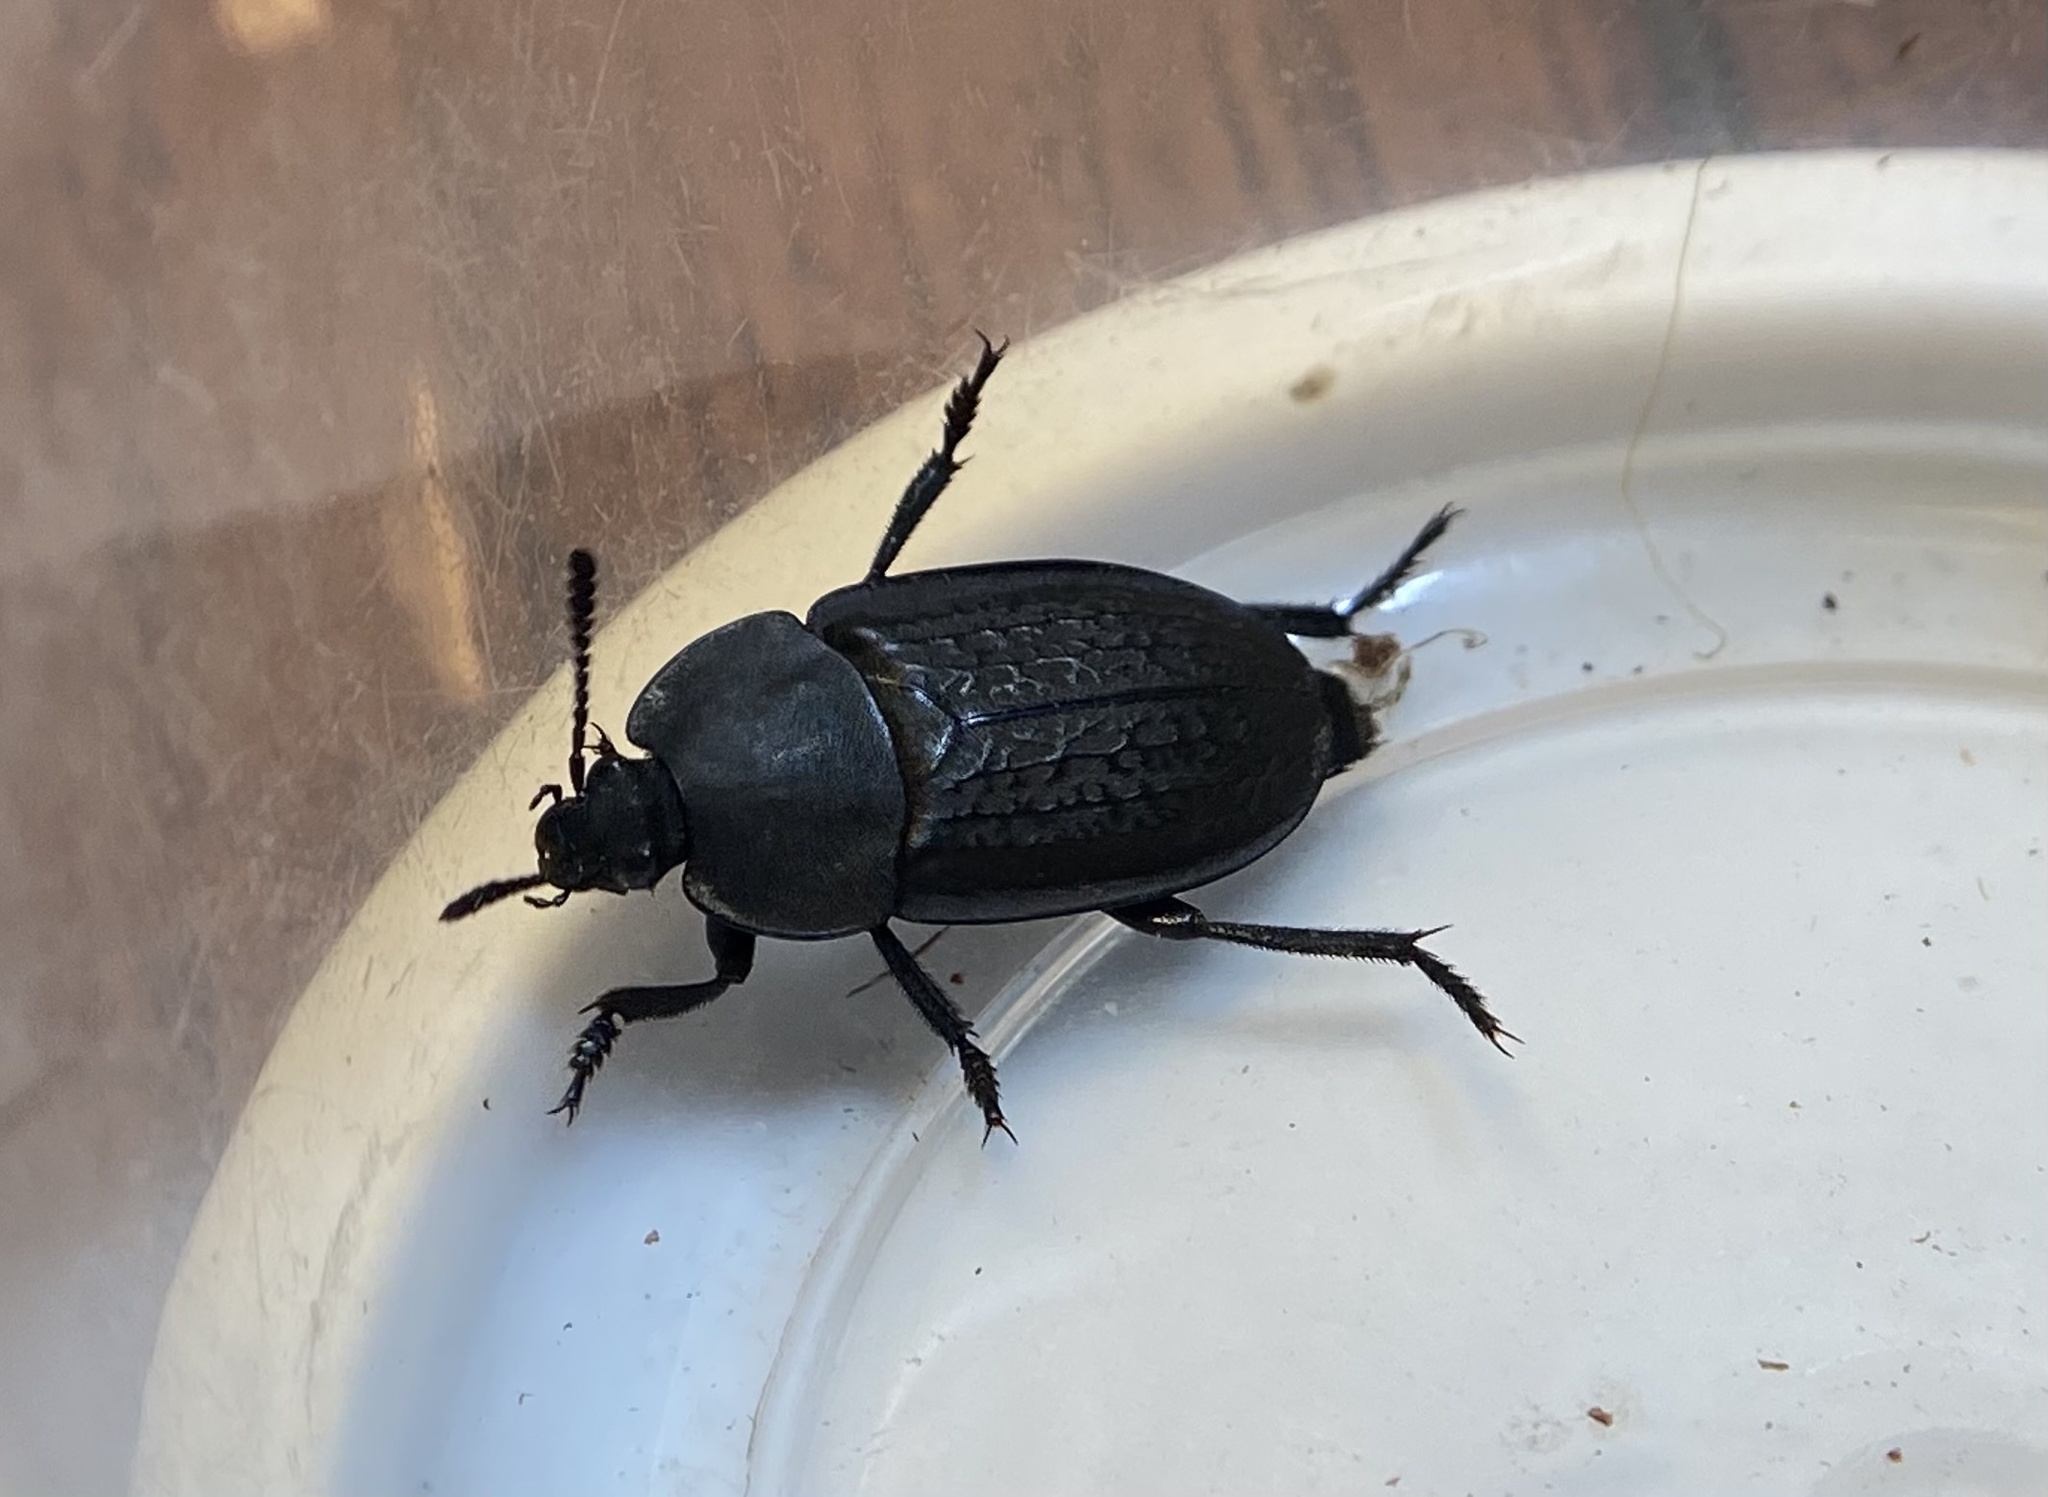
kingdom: Animalia
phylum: Arthropoda
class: Insecta
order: Coleoptera
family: Staphylinidae
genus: Heterosilpha
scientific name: Heterosilpha ramosa
